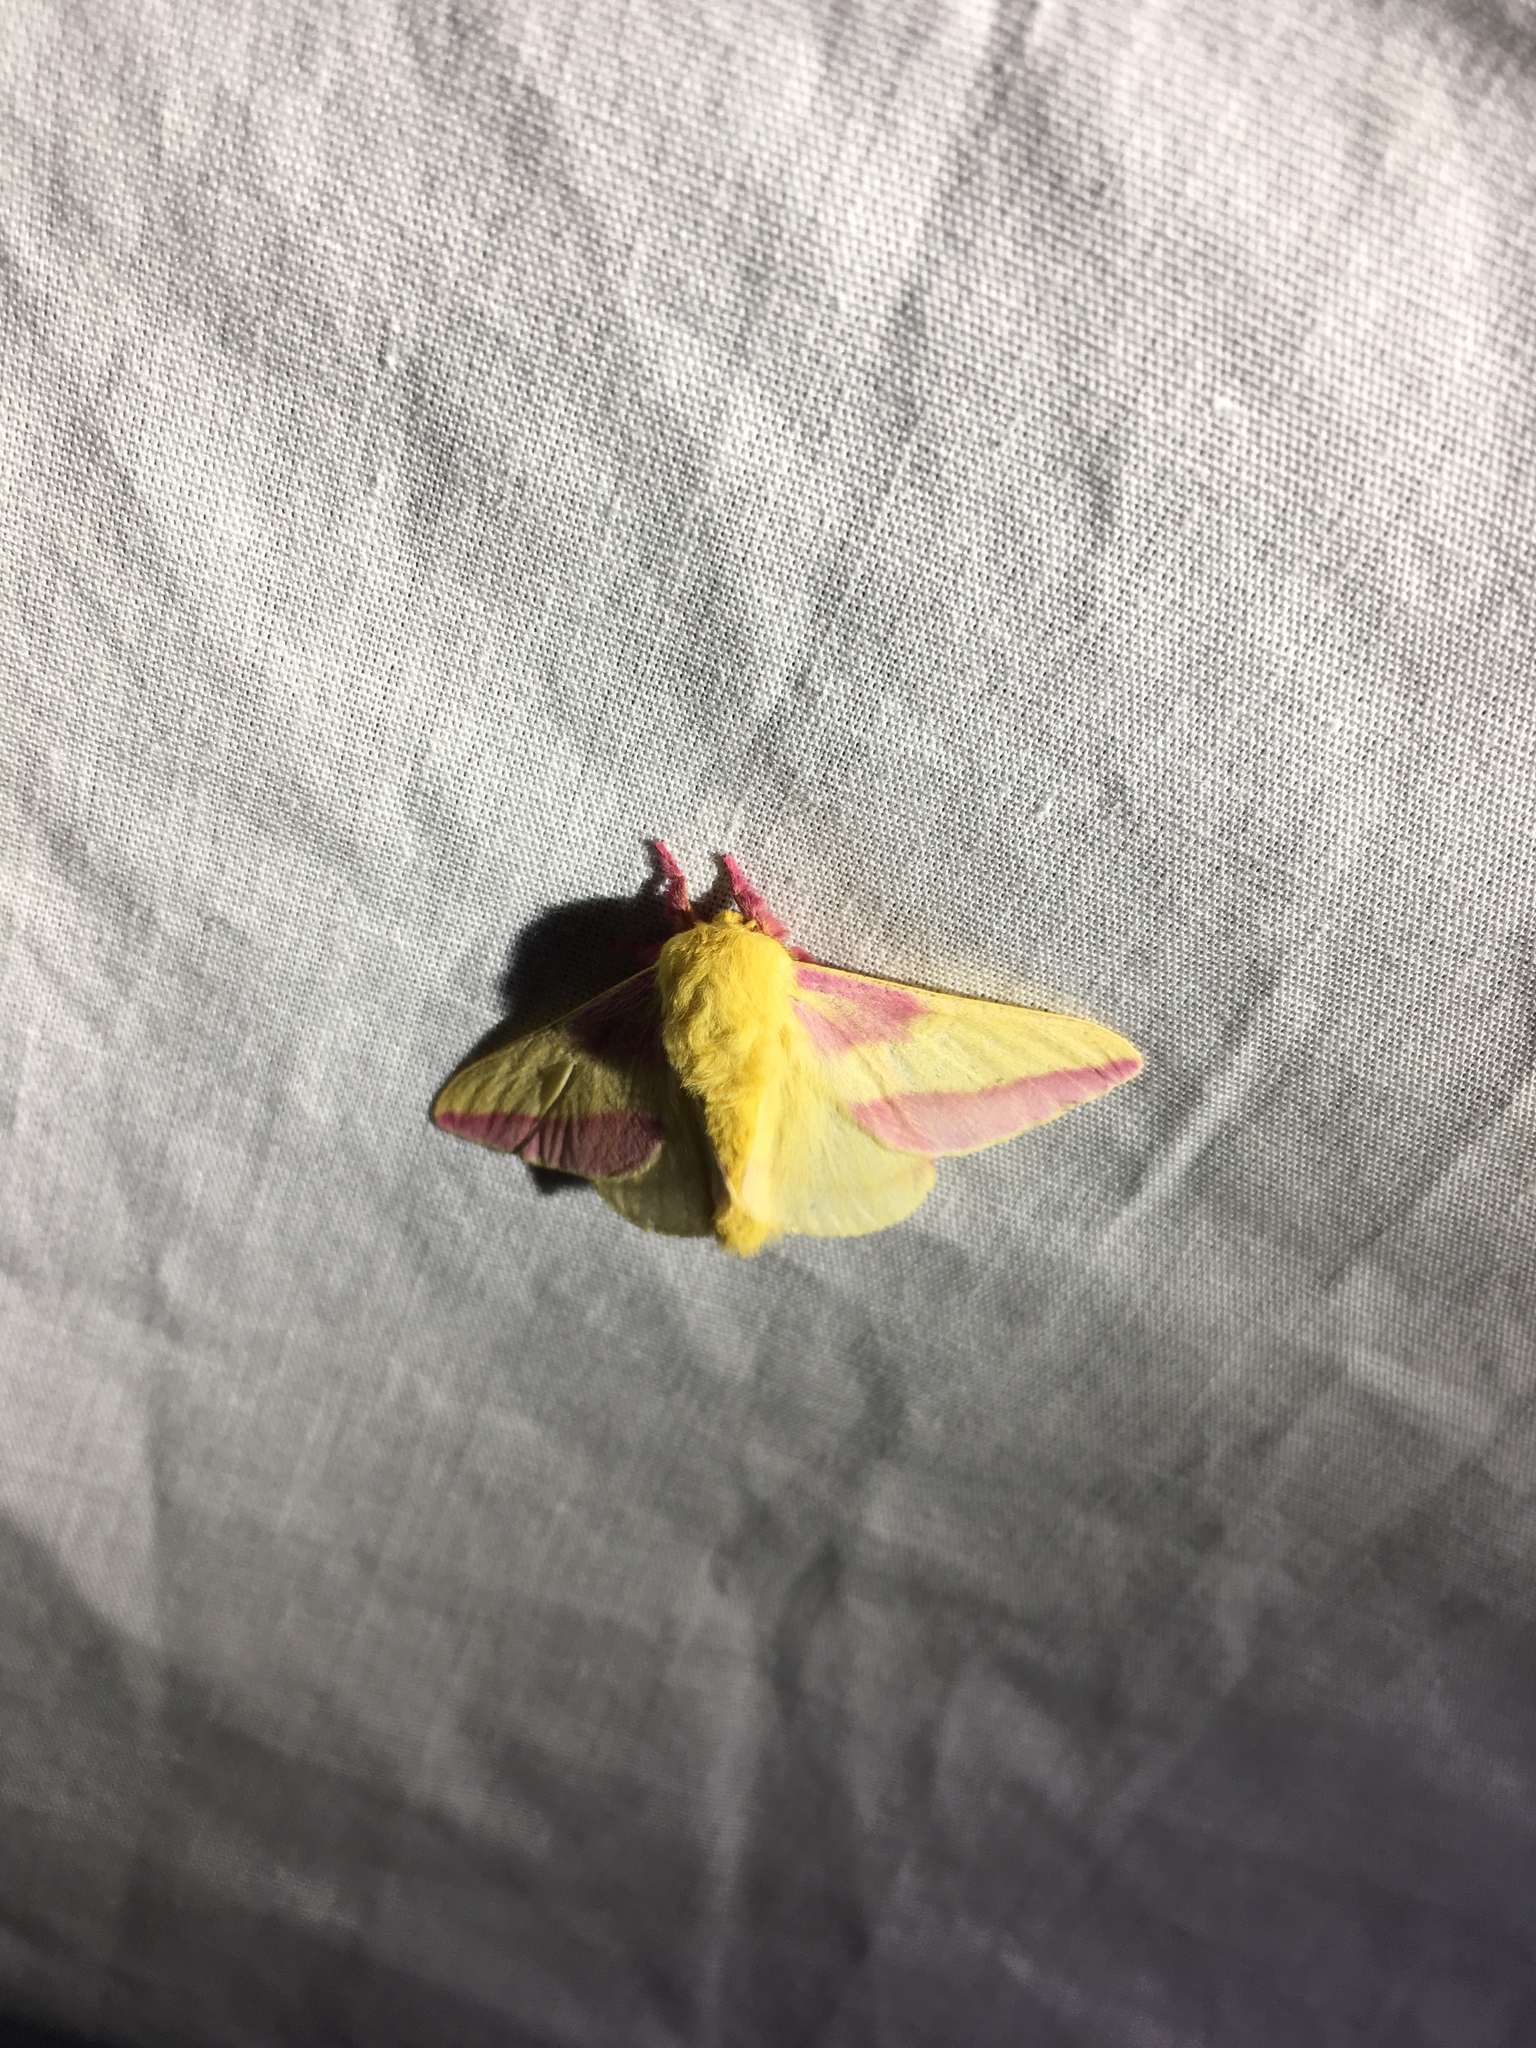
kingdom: Animalia
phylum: Arthropoda
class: Insecta
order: Lepidoptera
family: Saturniidae
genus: Dryocampa
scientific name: Dryocampa rubicunda
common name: Rosy maple moth
